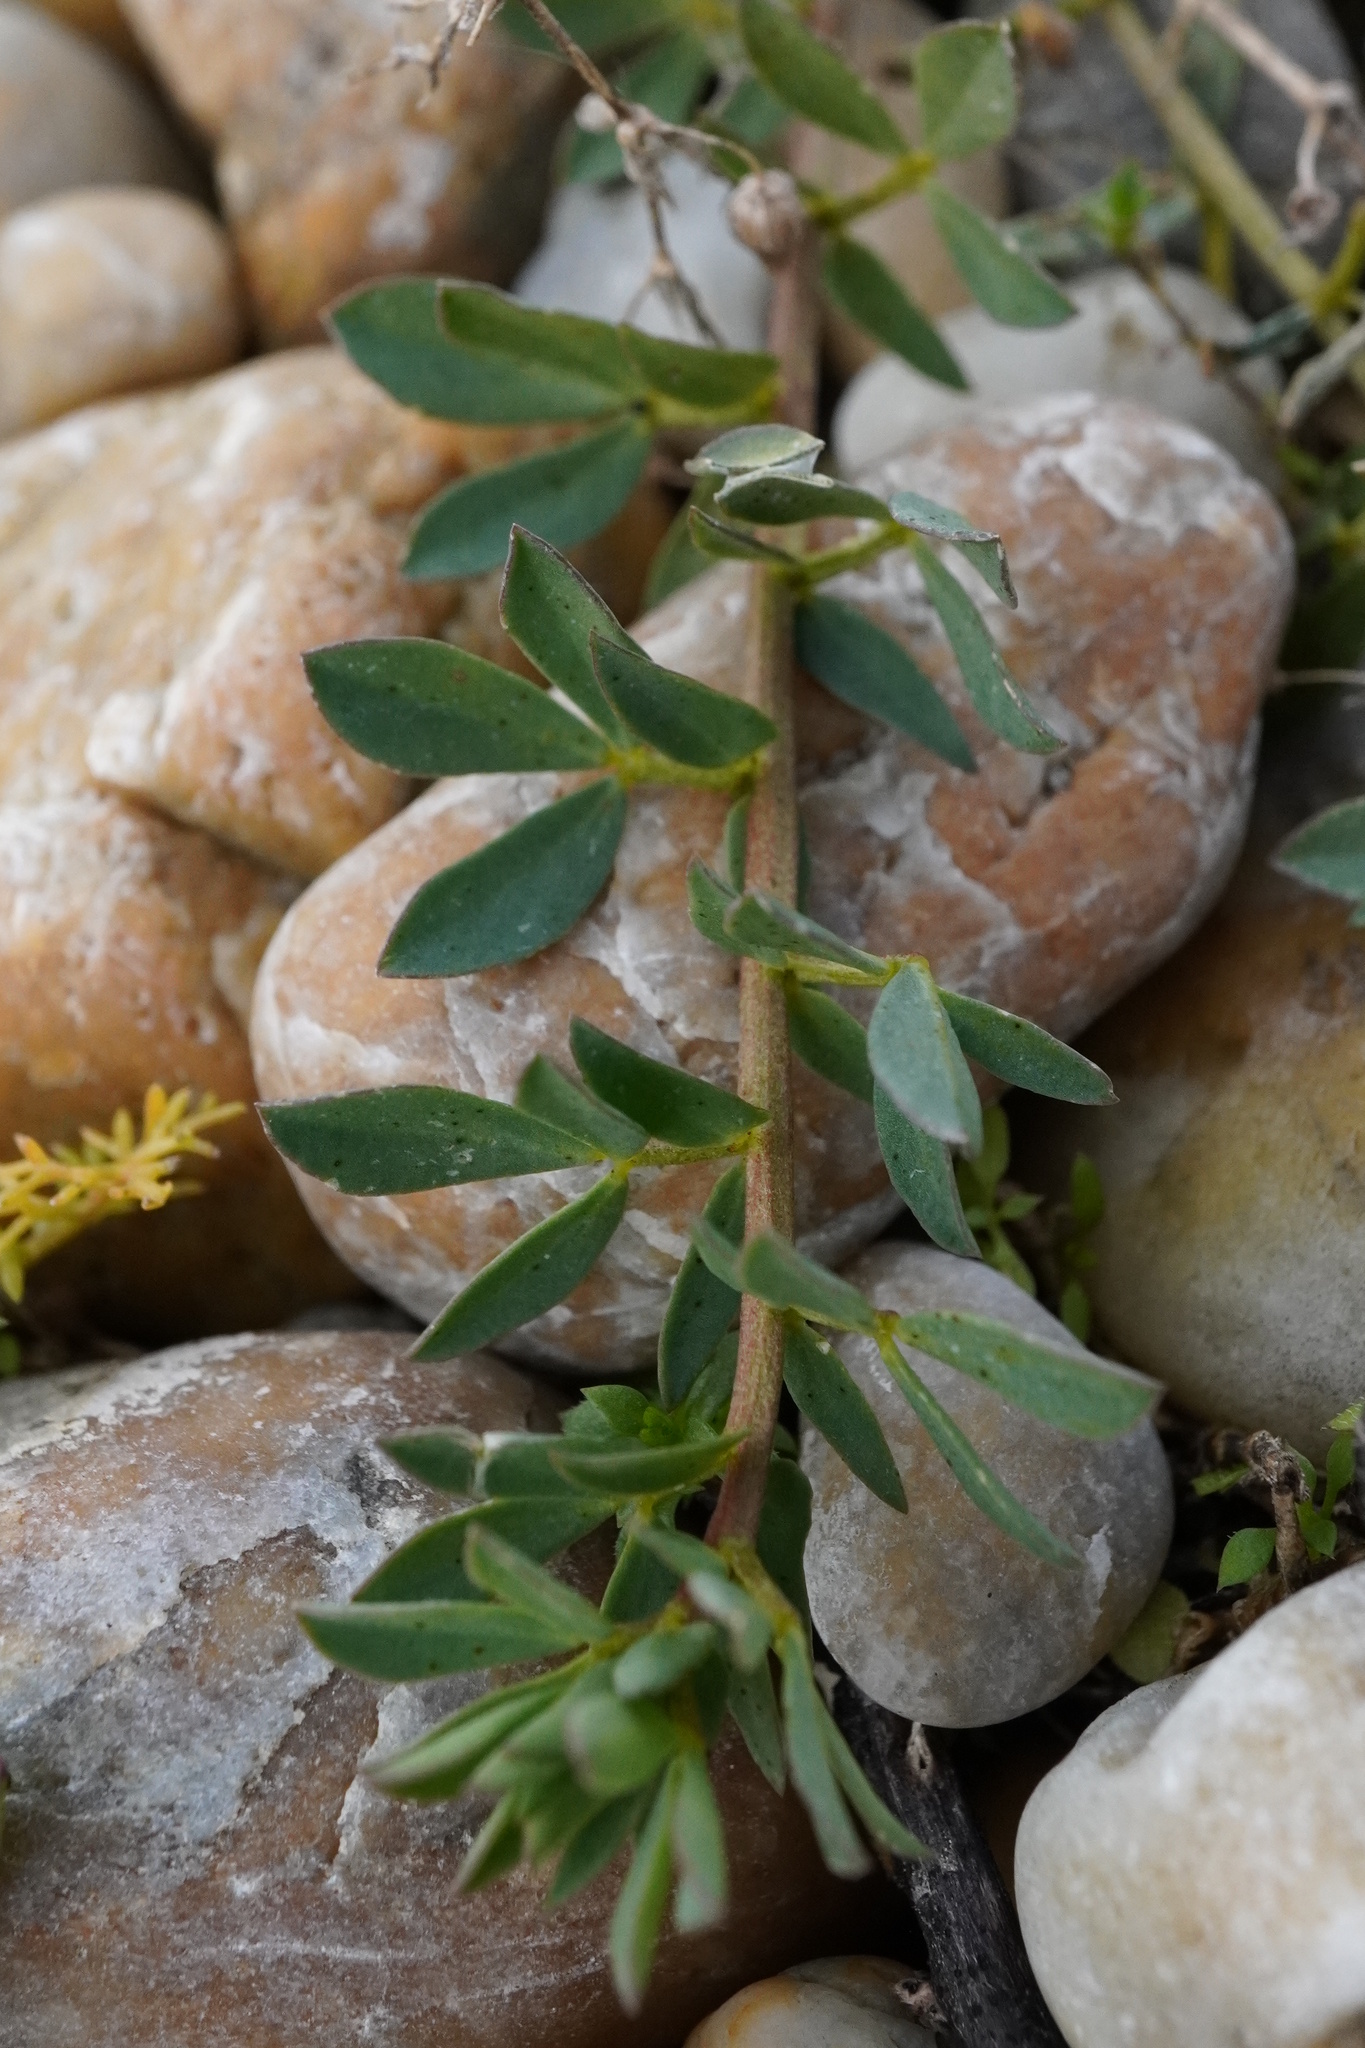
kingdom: Plantae
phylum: Tracheophyta
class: Magnoliopsida
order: Fabales
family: Fabaceae
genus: Lotus
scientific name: Lotus tenuis
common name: Narrow-leaved bird's-foot-trefoil
